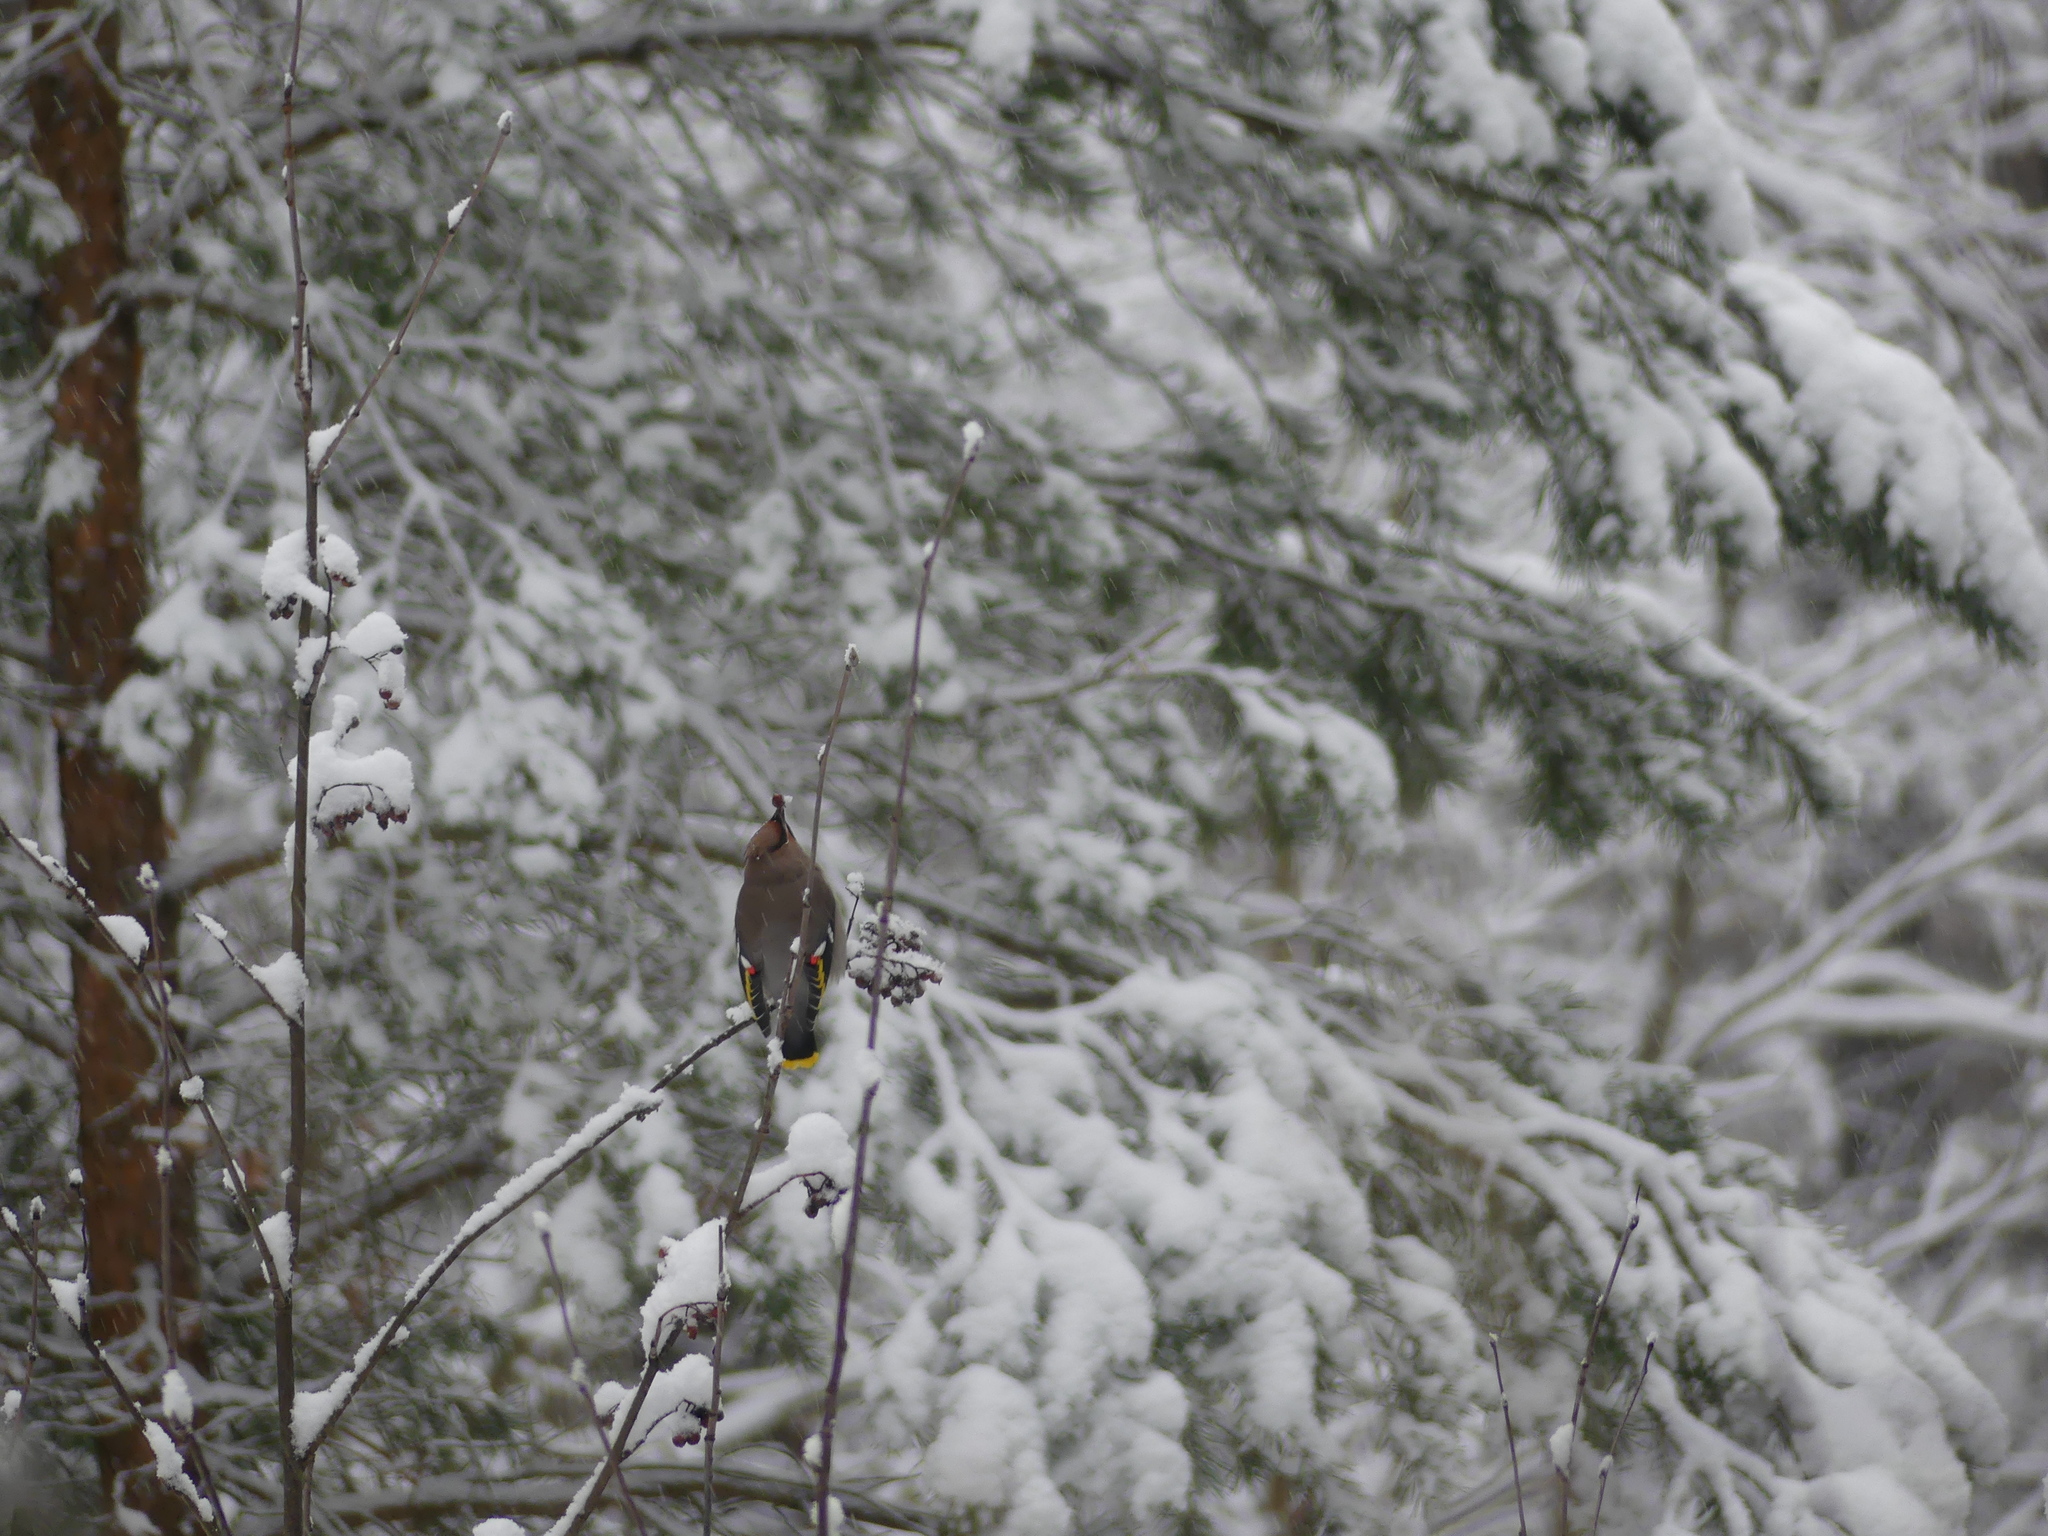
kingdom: Animalia
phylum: Chordata
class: Aves
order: Passeriformes
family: Bombycillidae
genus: Bombycilla
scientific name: Bombycilla garrulus
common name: Bohemian waxwing
